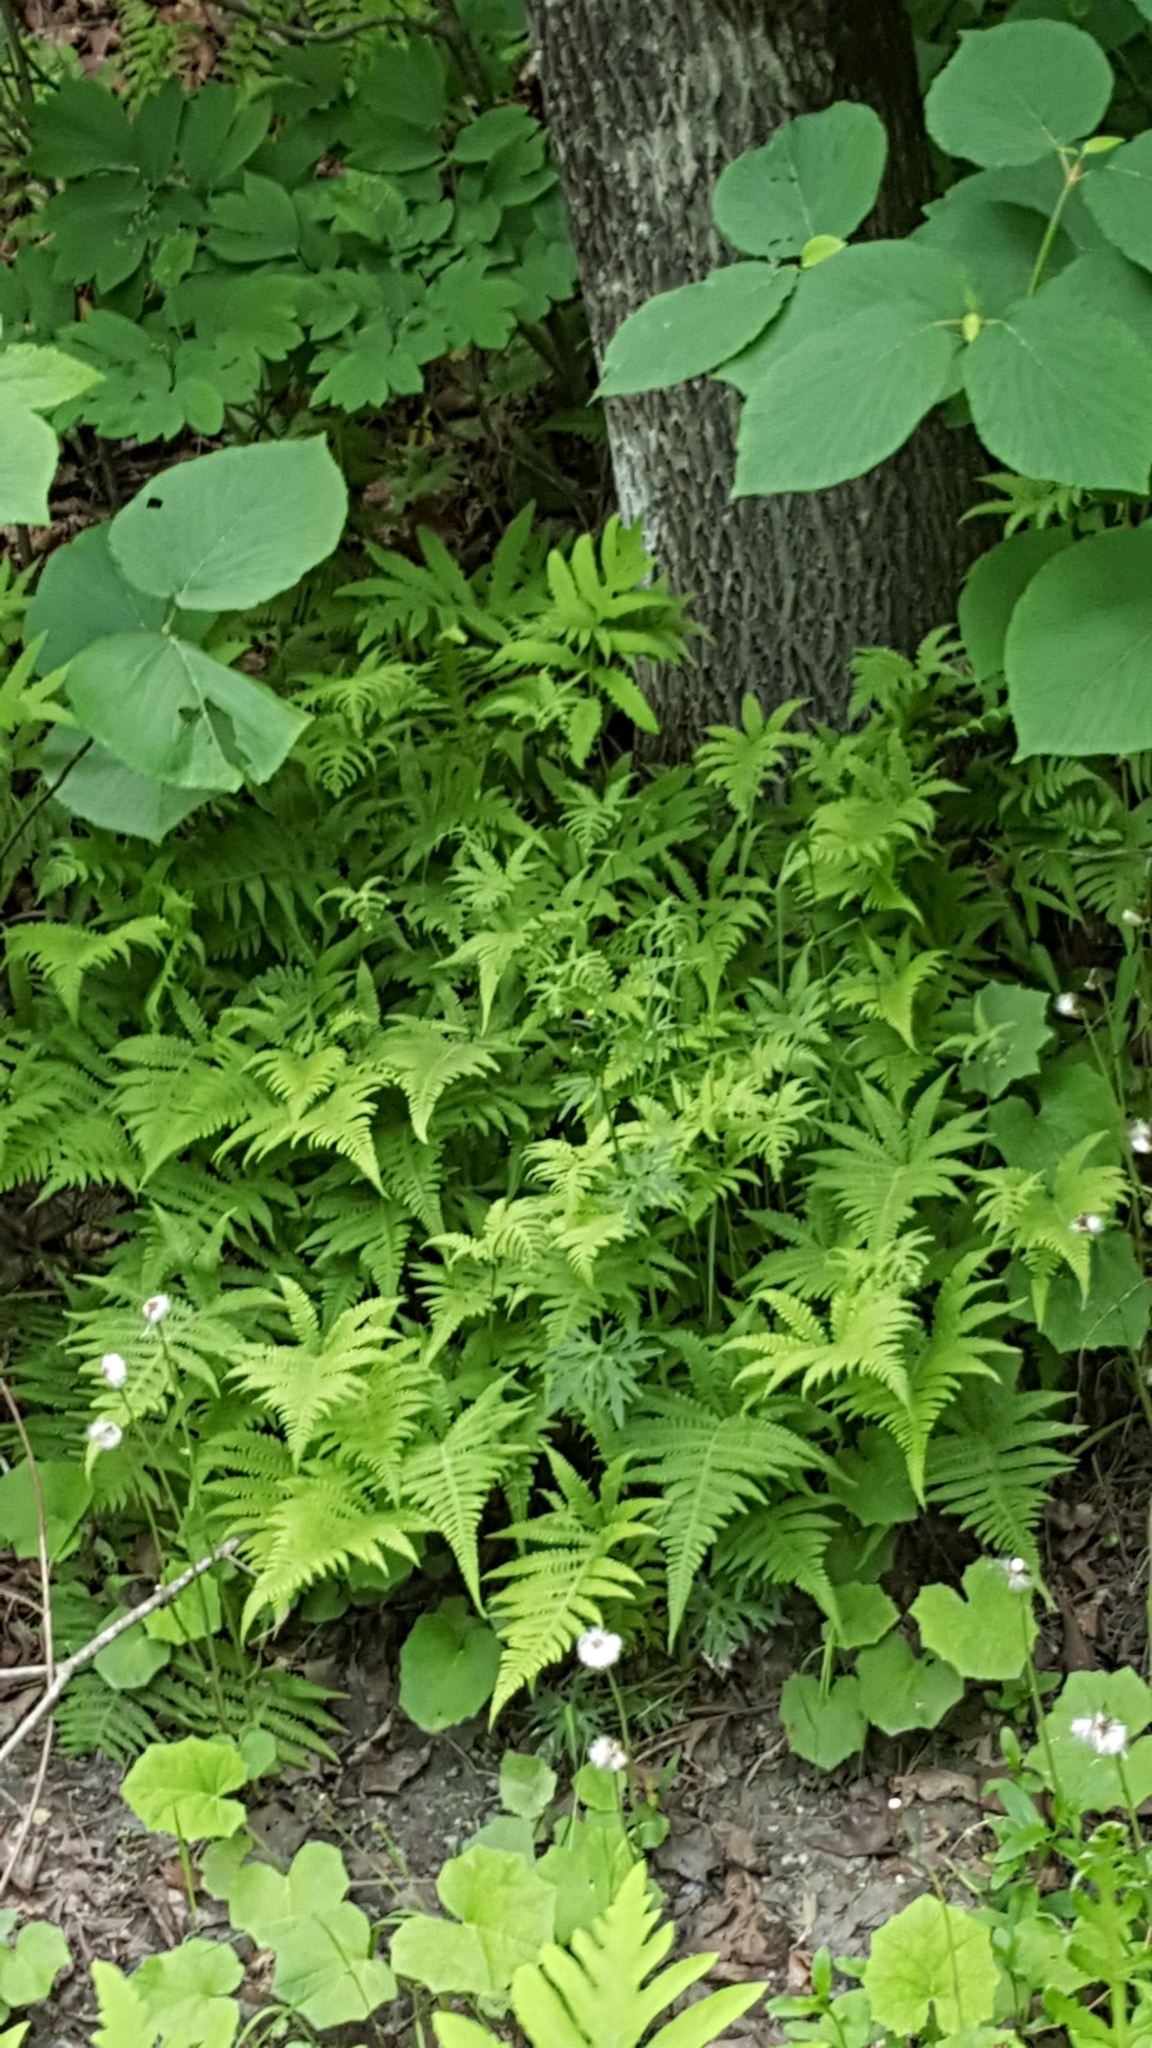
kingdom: Plantae
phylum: Tracheophyta
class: Polypodiopsida
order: Polypodiales
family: Thelypteridaceae
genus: Phegopteris
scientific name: Phegopteris connectilis
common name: Beech fern
